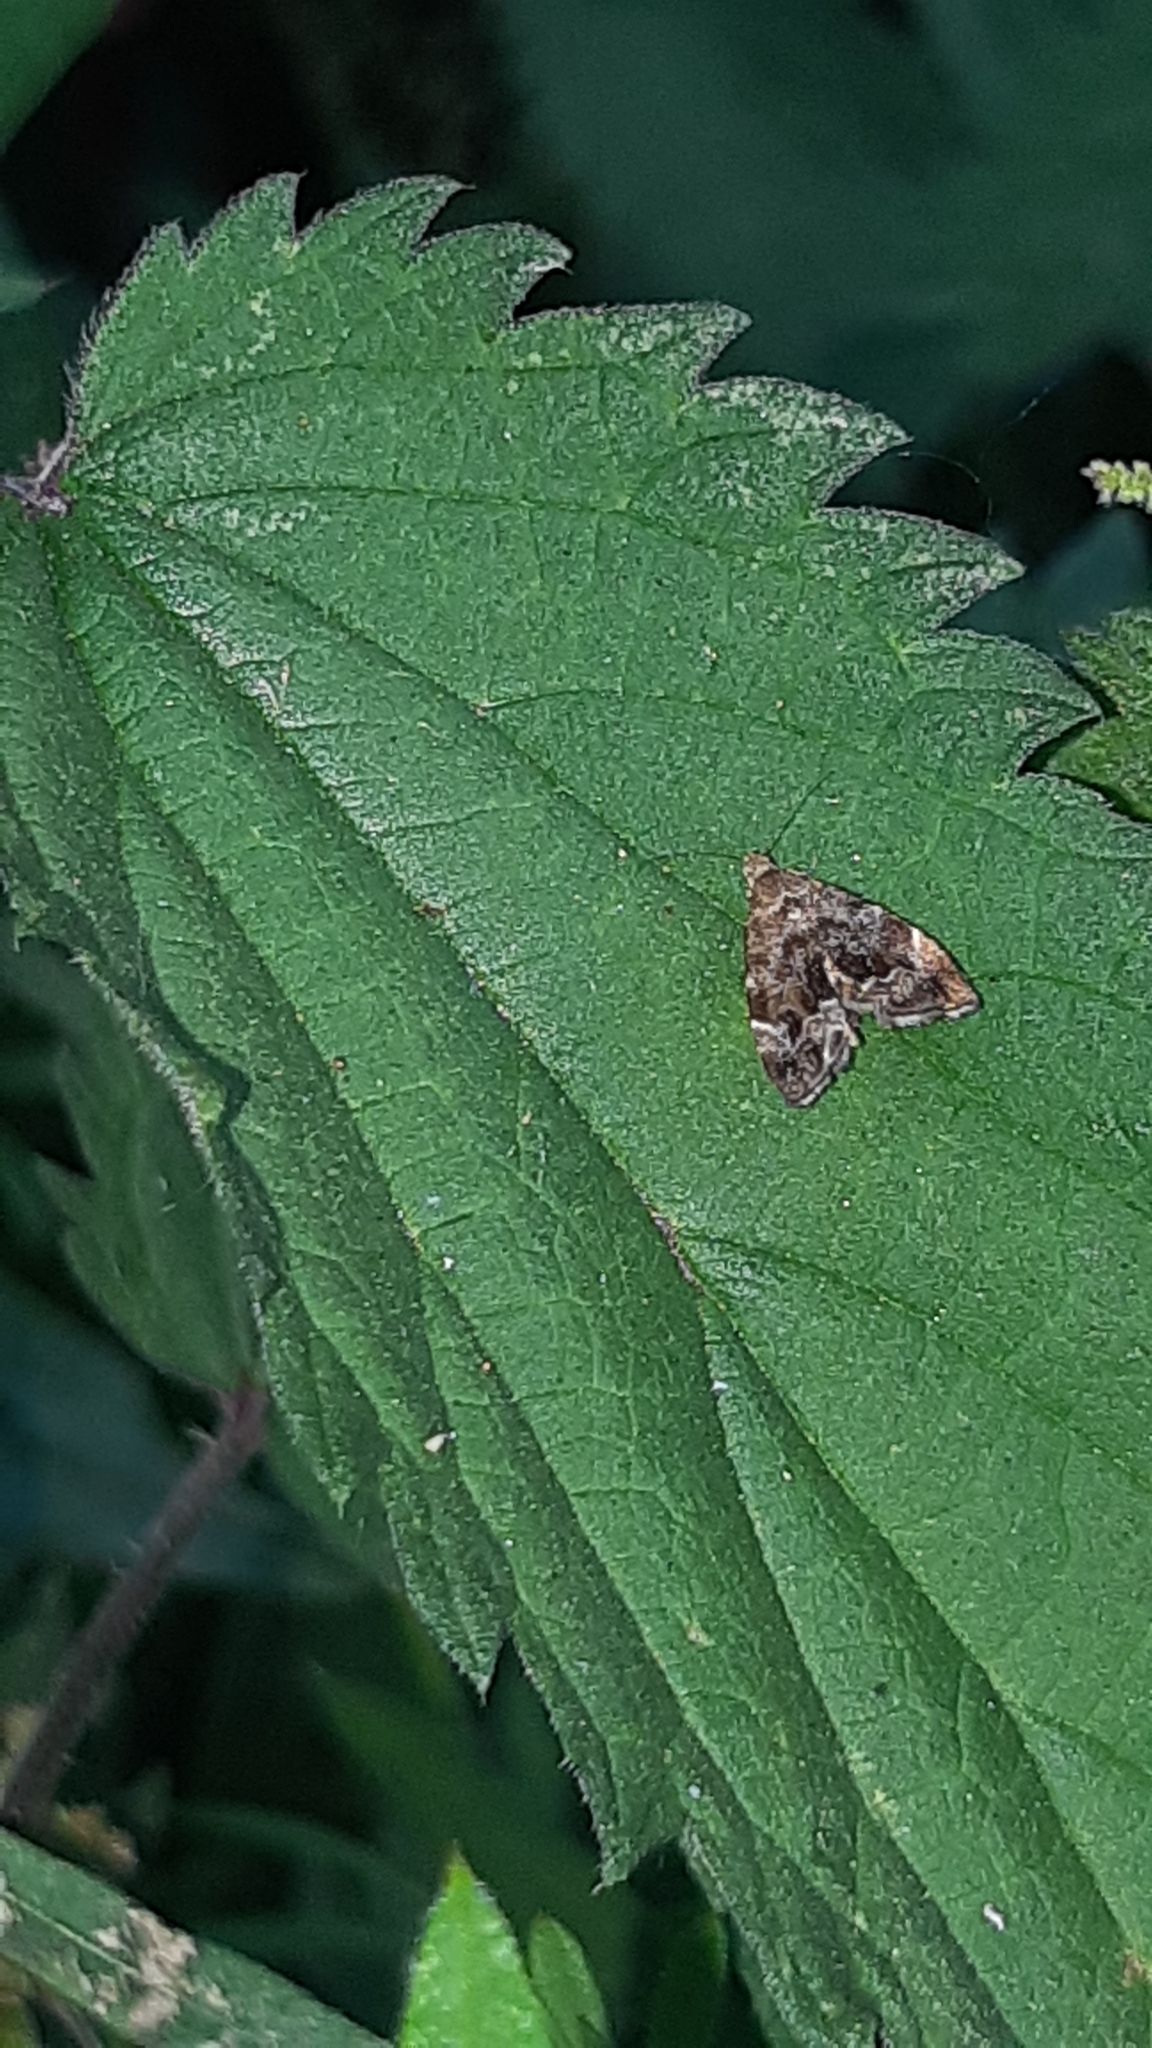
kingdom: Animalia
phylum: Arthropoda
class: Insecta
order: Lepidoptera
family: Choreutidae
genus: Anthophila
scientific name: Anthophila fabriciana
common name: Nettle-tap
